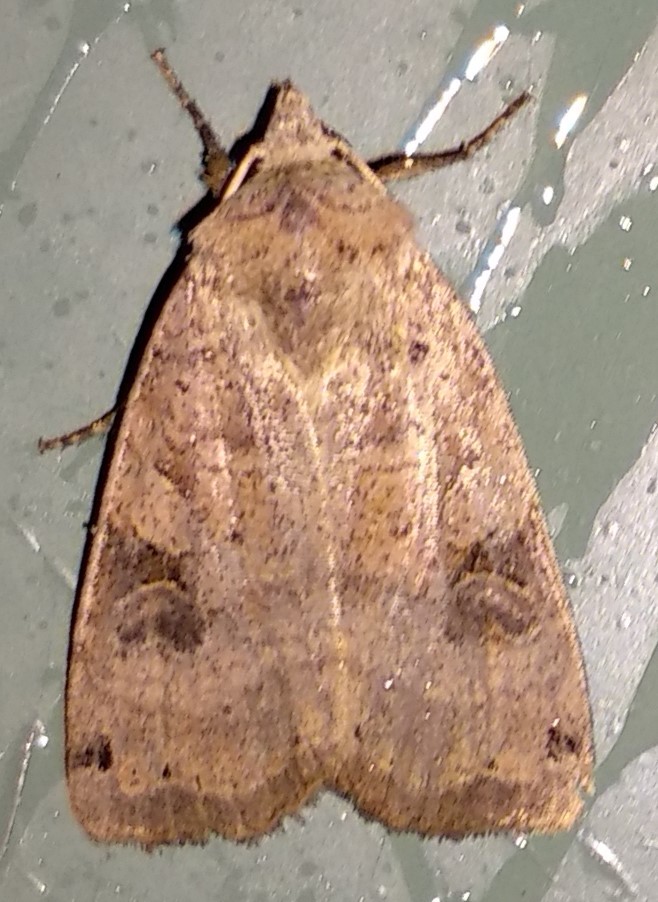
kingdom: Animalia
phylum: Arthropoda
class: Insecta
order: Lepidoptera
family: Noctuidae
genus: Xestia
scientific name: Xestia smithii
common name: Smith's dart
